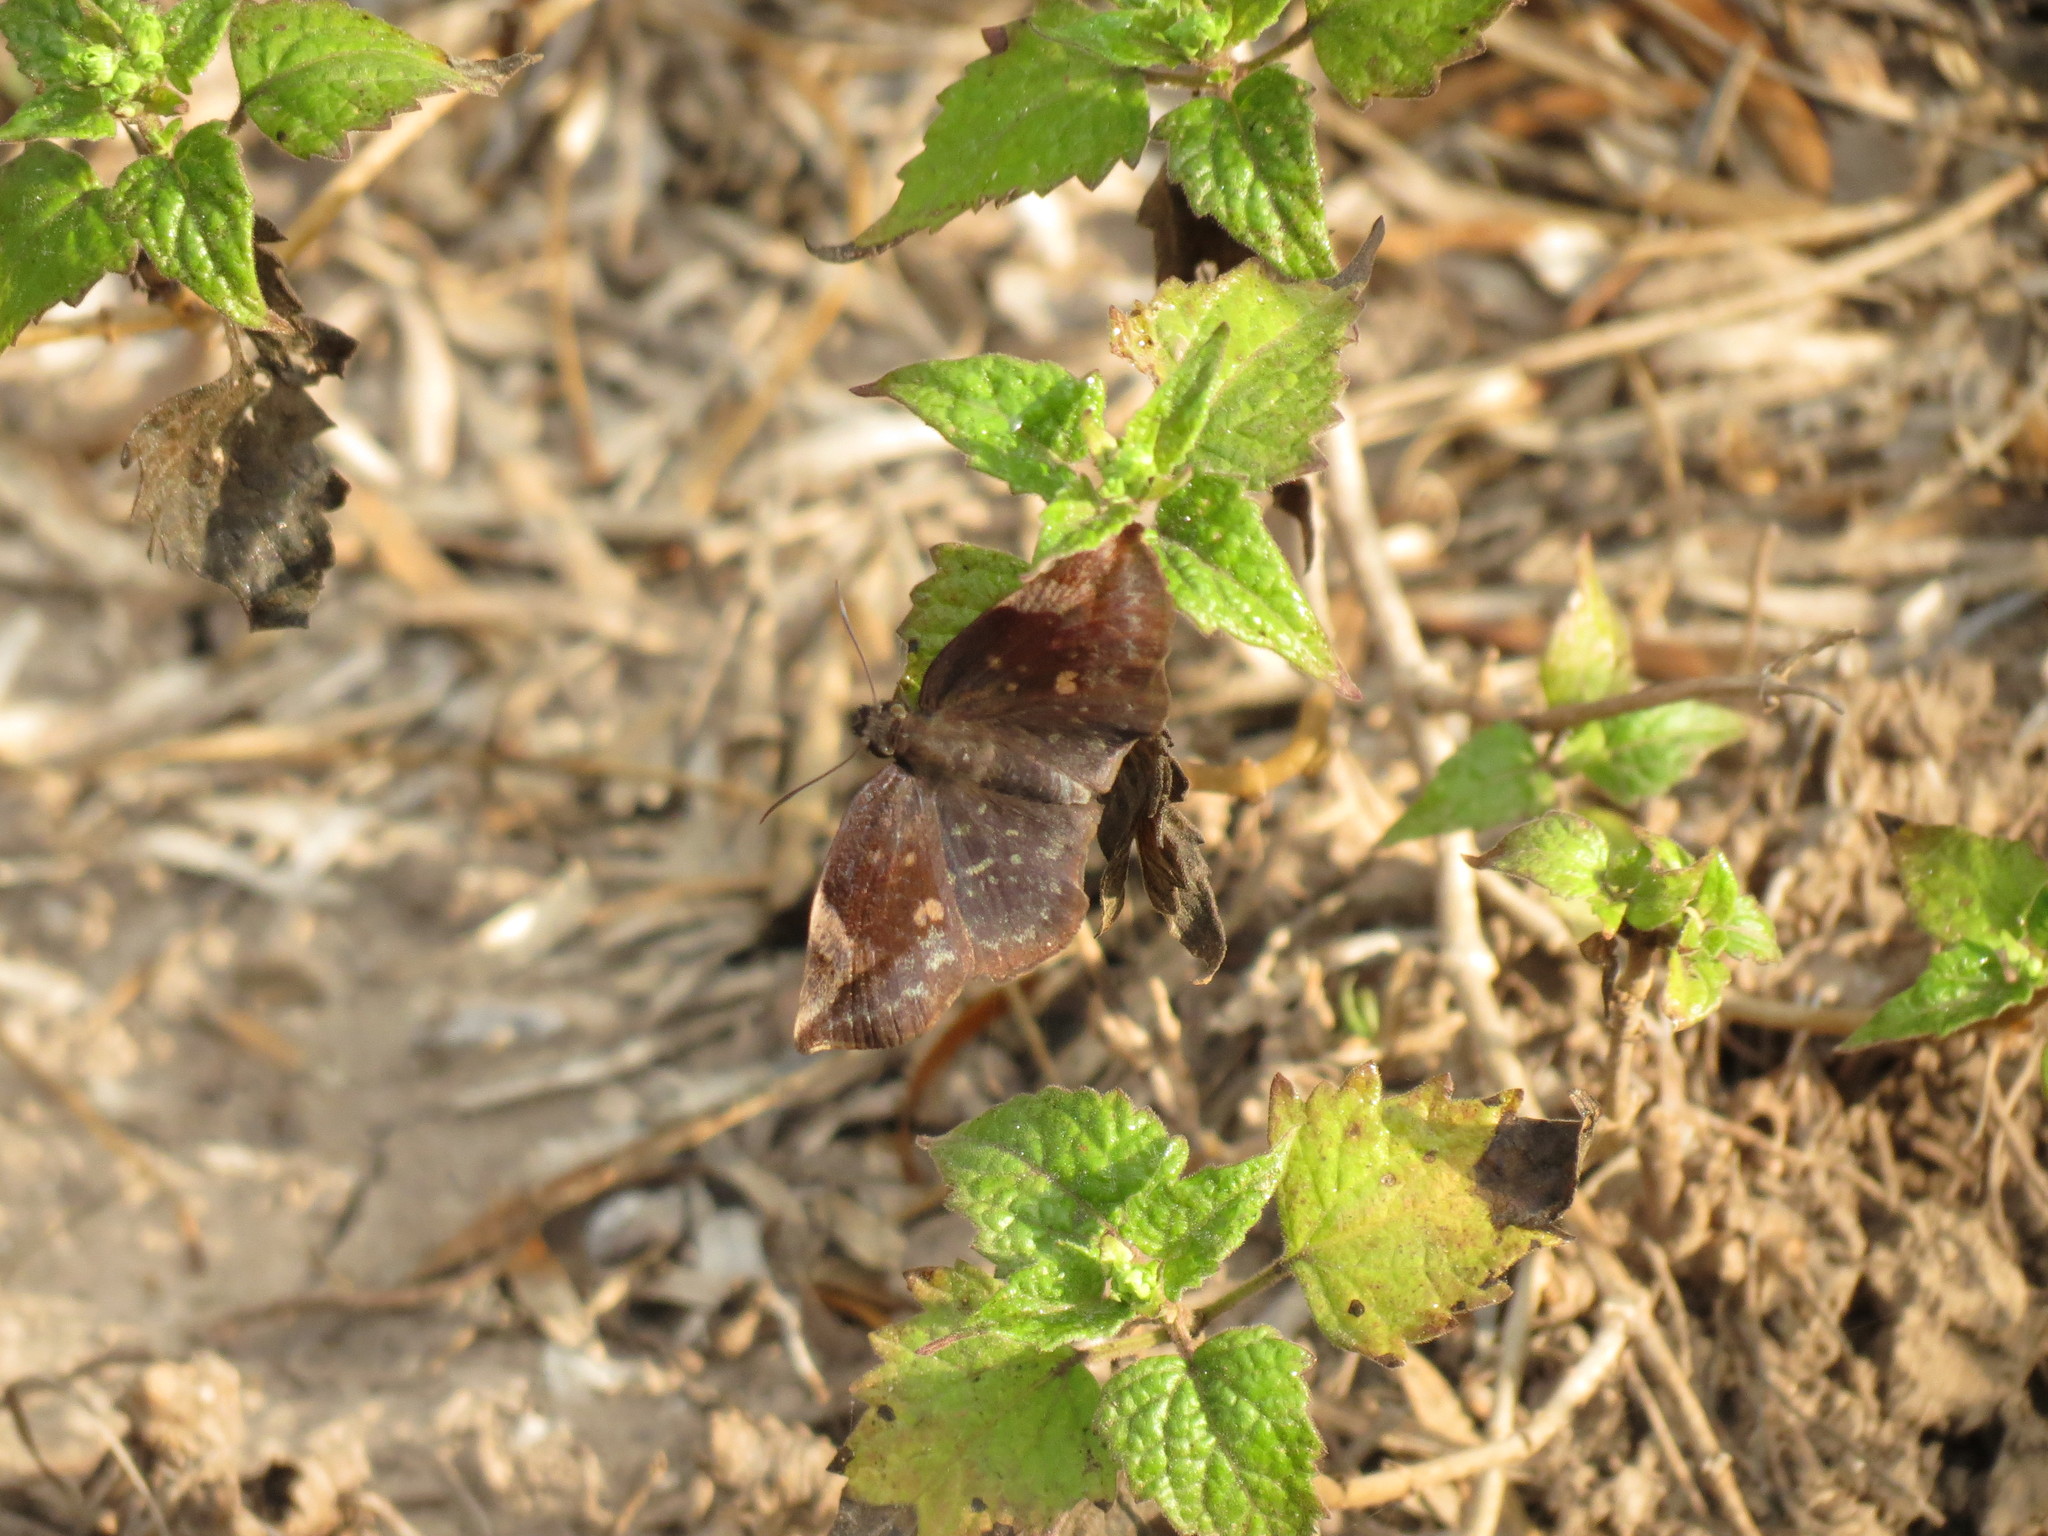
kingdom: Animalia
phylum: Arthropoda
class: Insecta
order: Lepidoptera
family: Hesperiidae
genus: Achlyodes
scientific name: Achlyodes thraso
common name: Sickle-winged skipper
